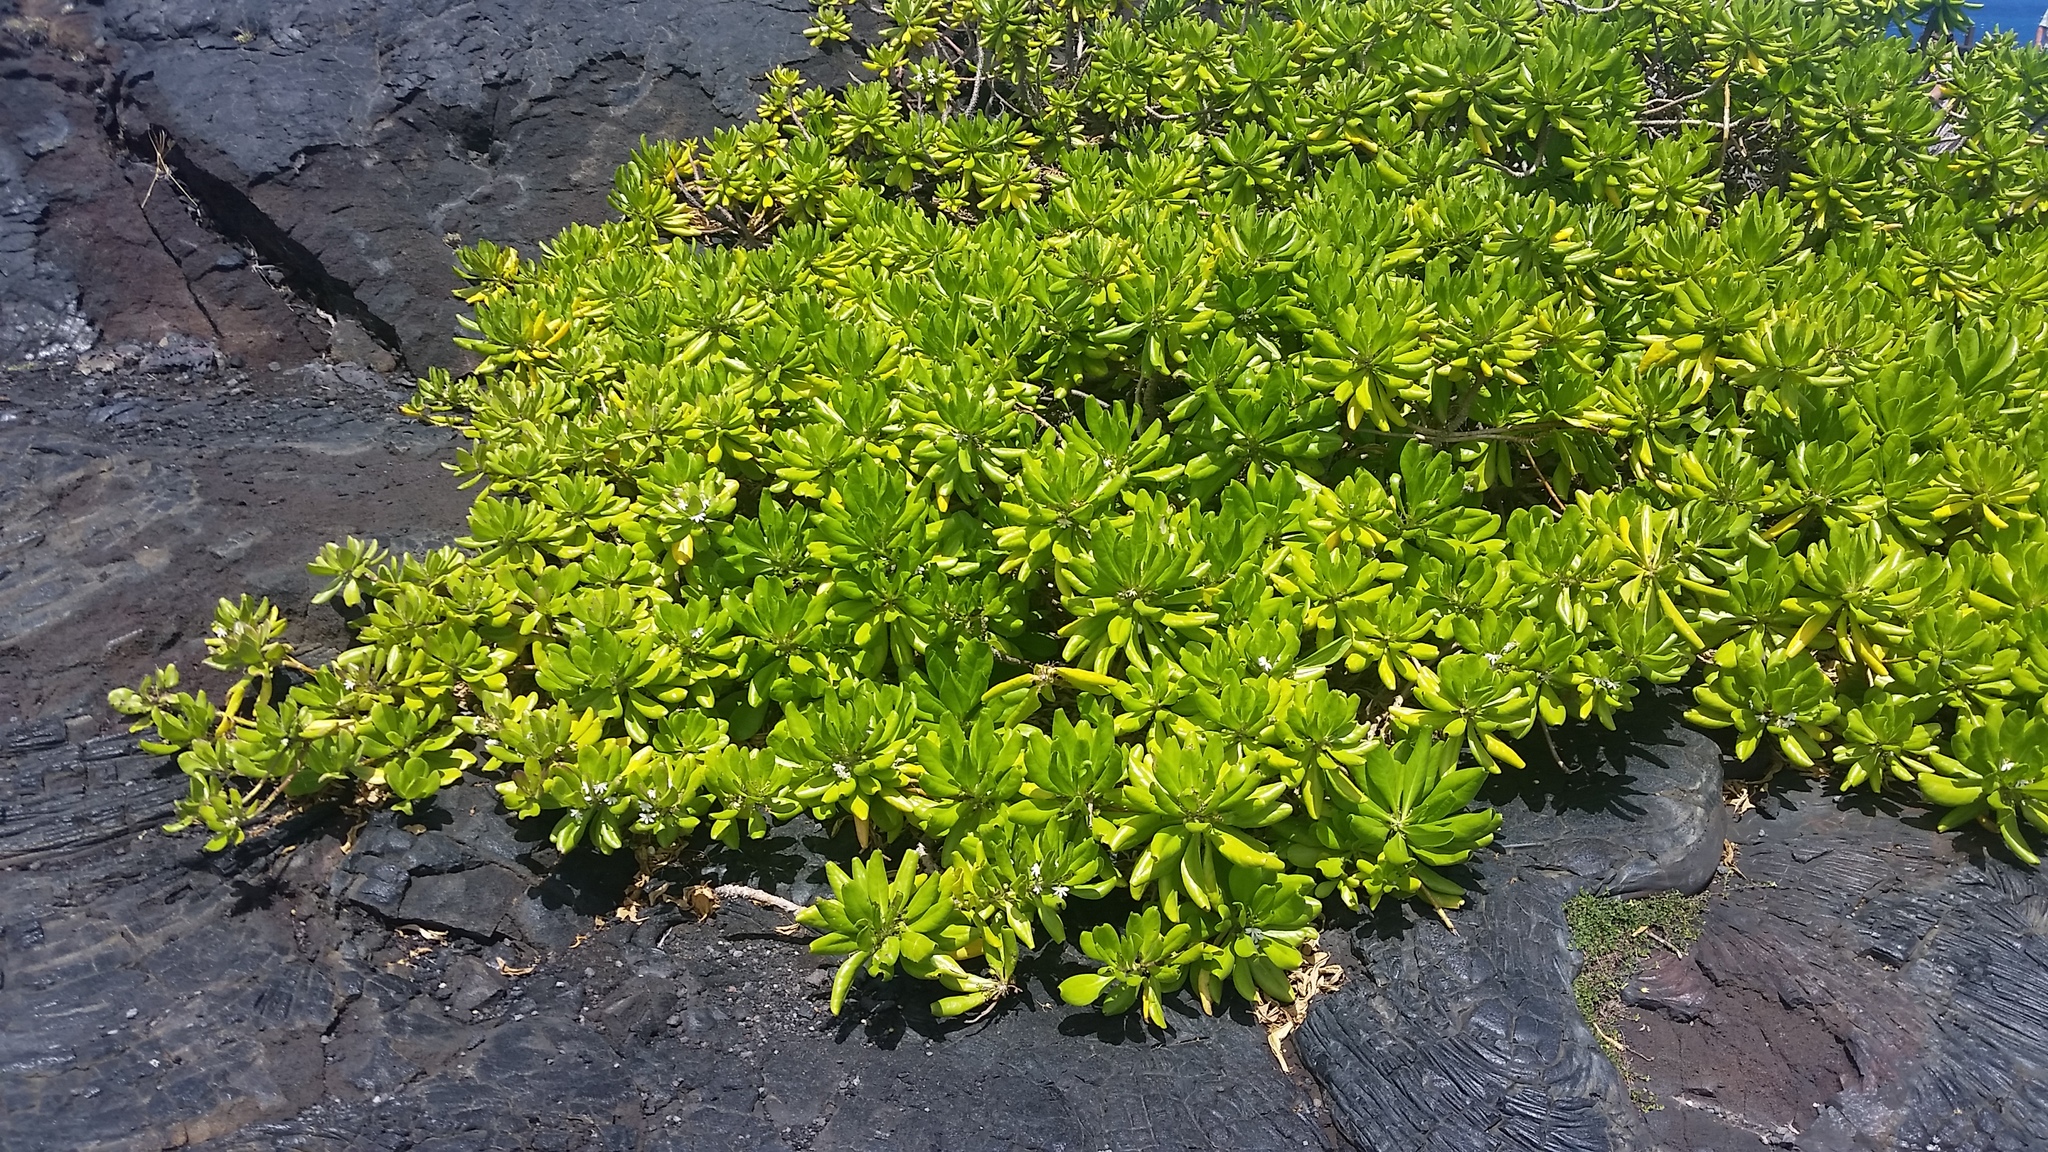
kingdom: Plantae
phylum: Tracheophyta
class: Magnoliopsida
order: Asterales
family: Goodeniaceae
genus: Scaevola
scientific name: Scaevola taccada
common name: Sea lettucetree
